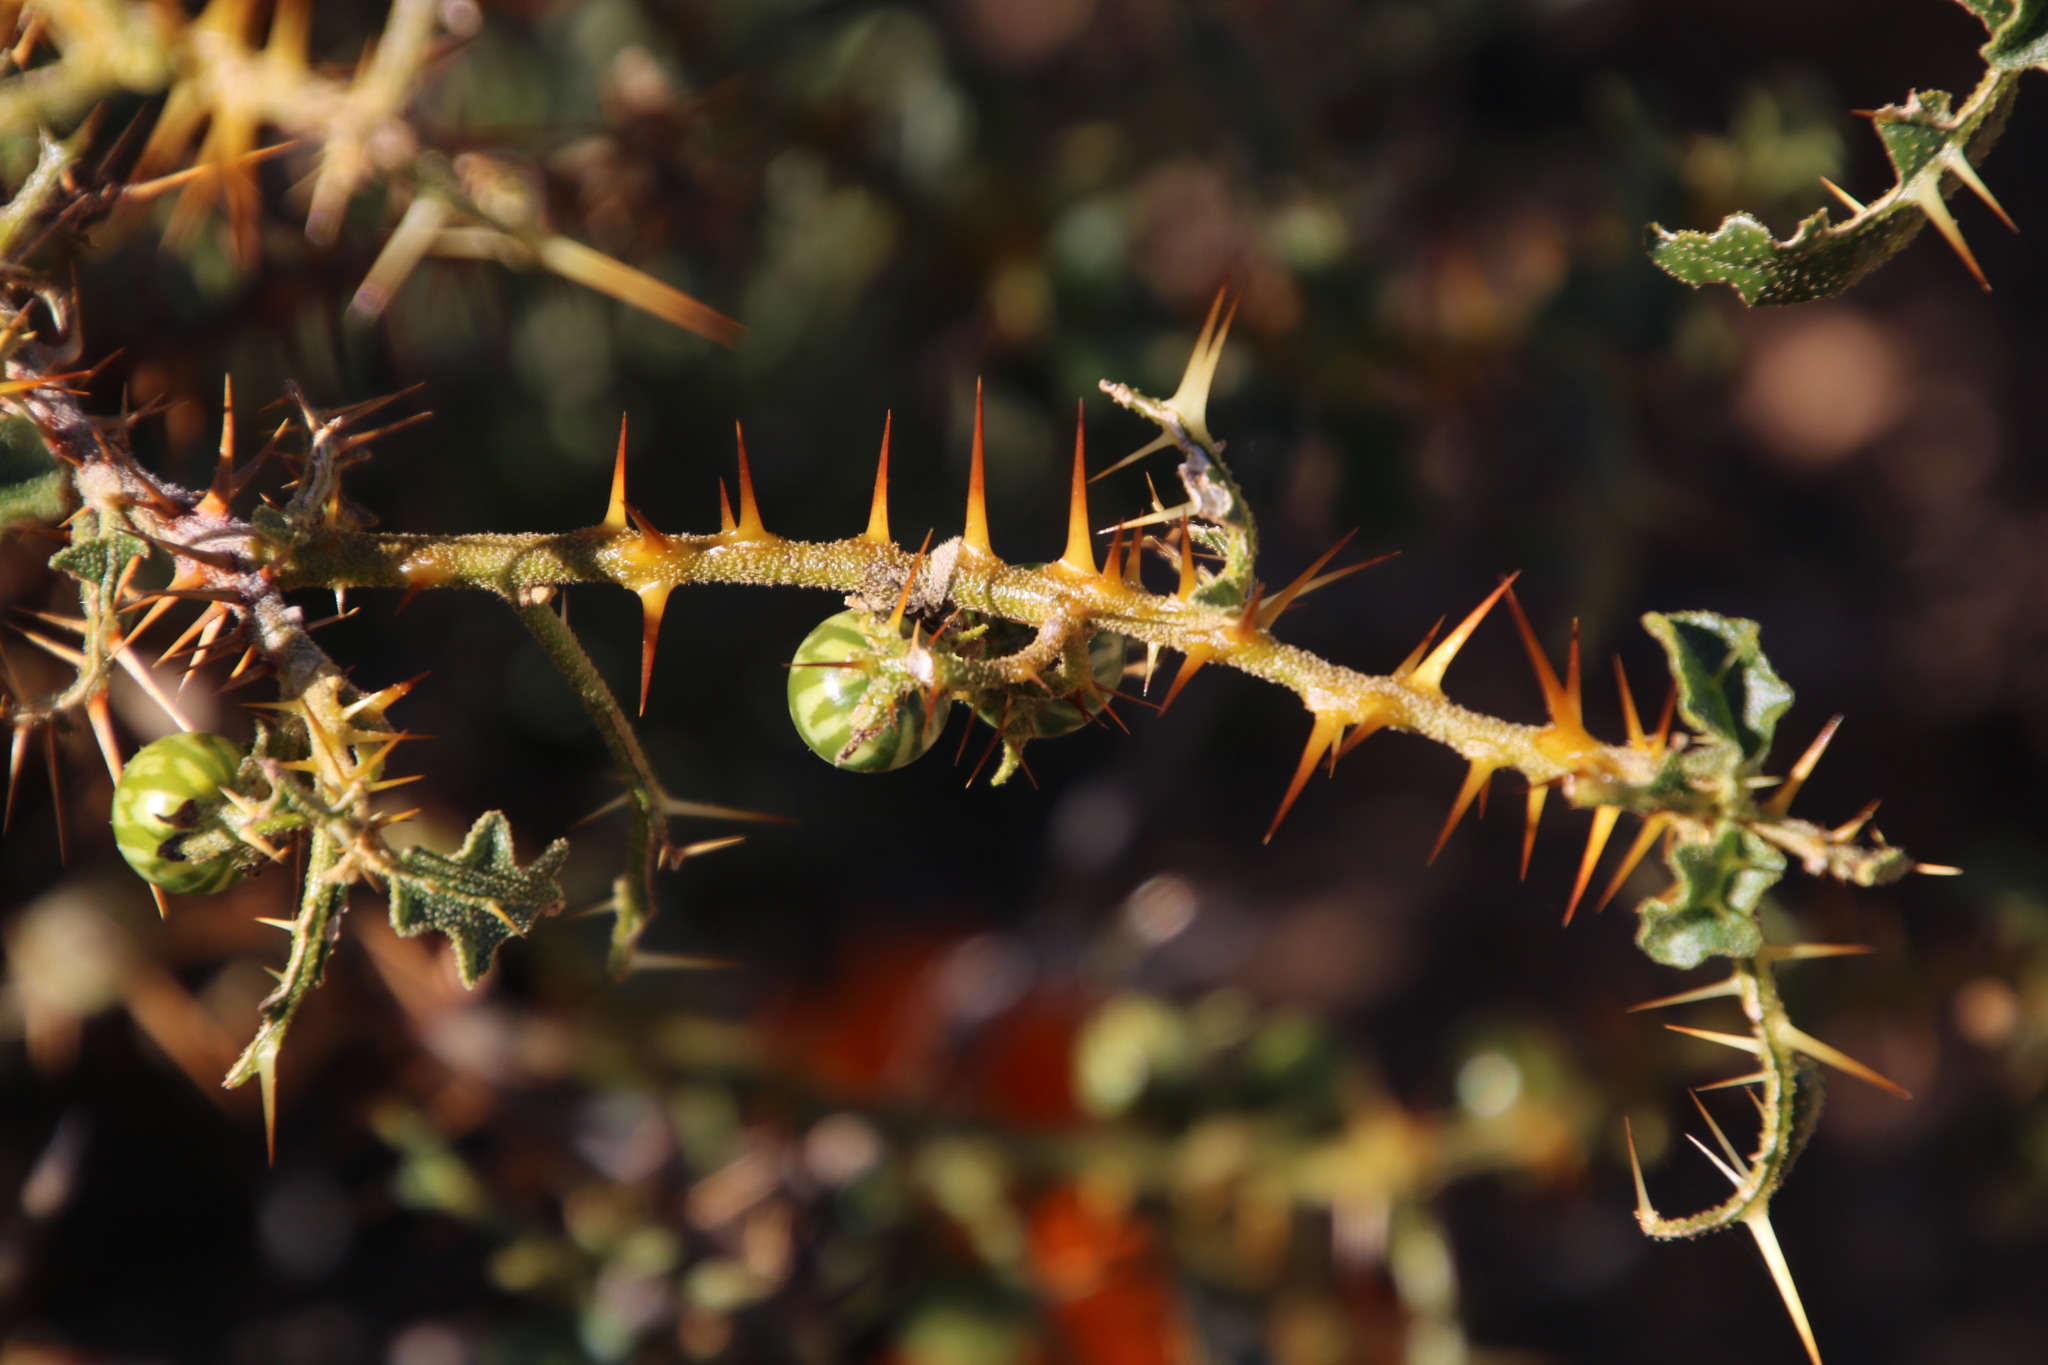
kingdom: Plantae
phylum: Tracheophyta
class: Magnoliopsida
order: Solanales
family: Solanaceae
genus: Solanum
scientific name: Solanum humile
